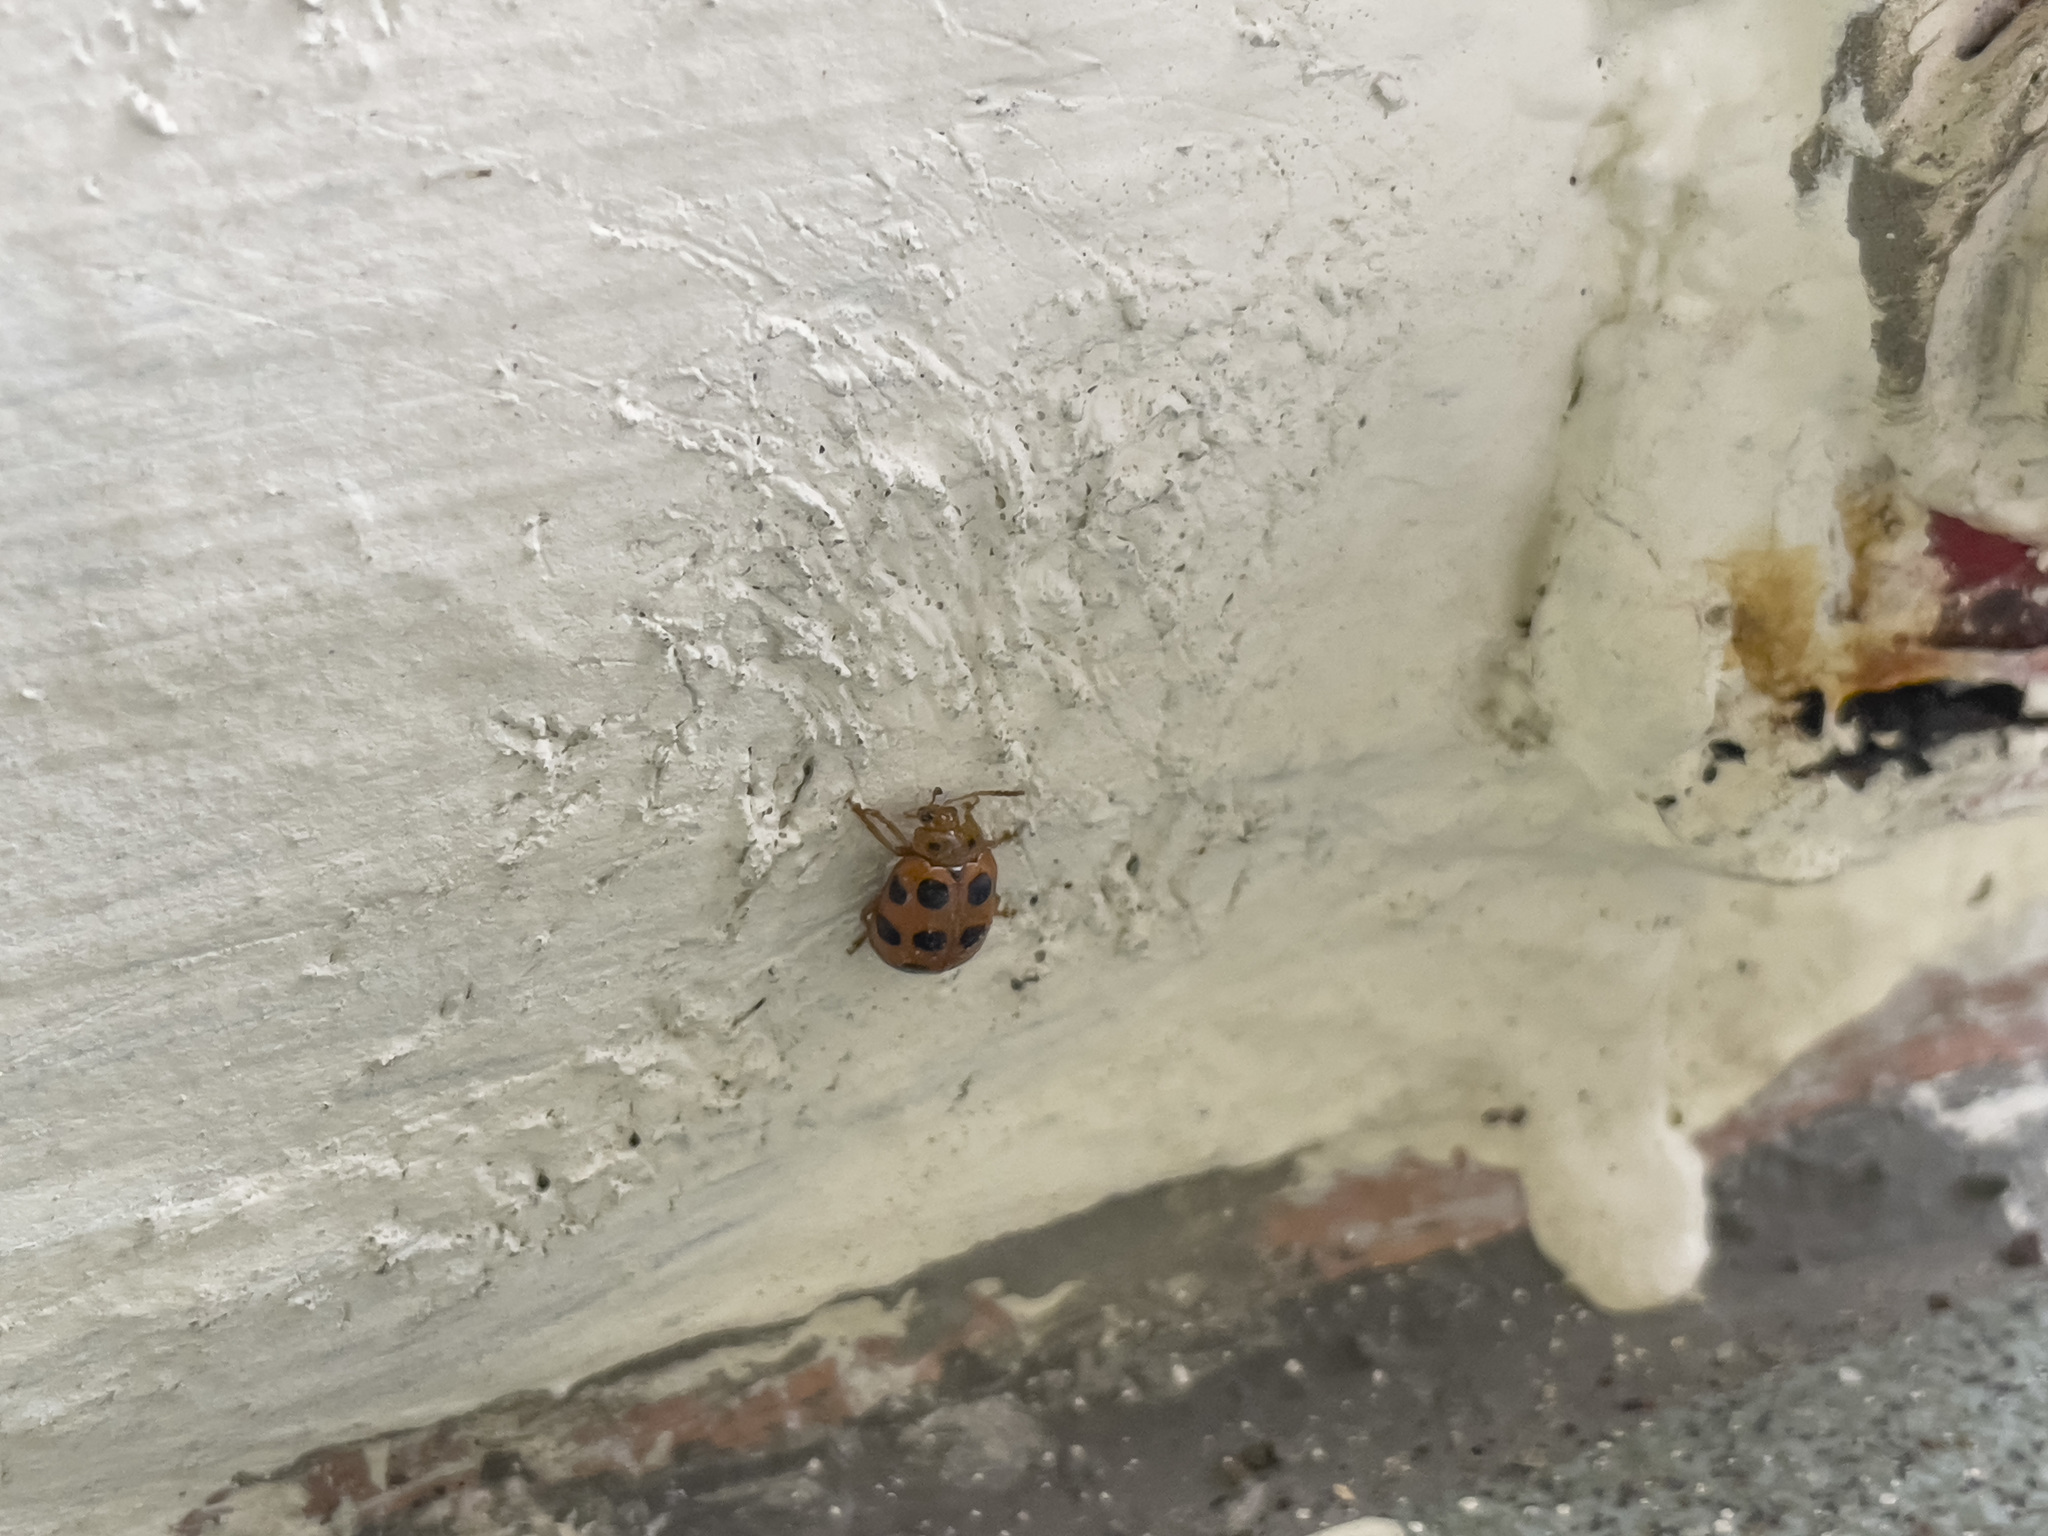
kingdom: Animalia
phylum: Arthropoda
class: Insecta
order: Coleoptera
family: Chrysomelidae
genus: Sphenoraia
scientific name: Sphenoraia nebulosa
